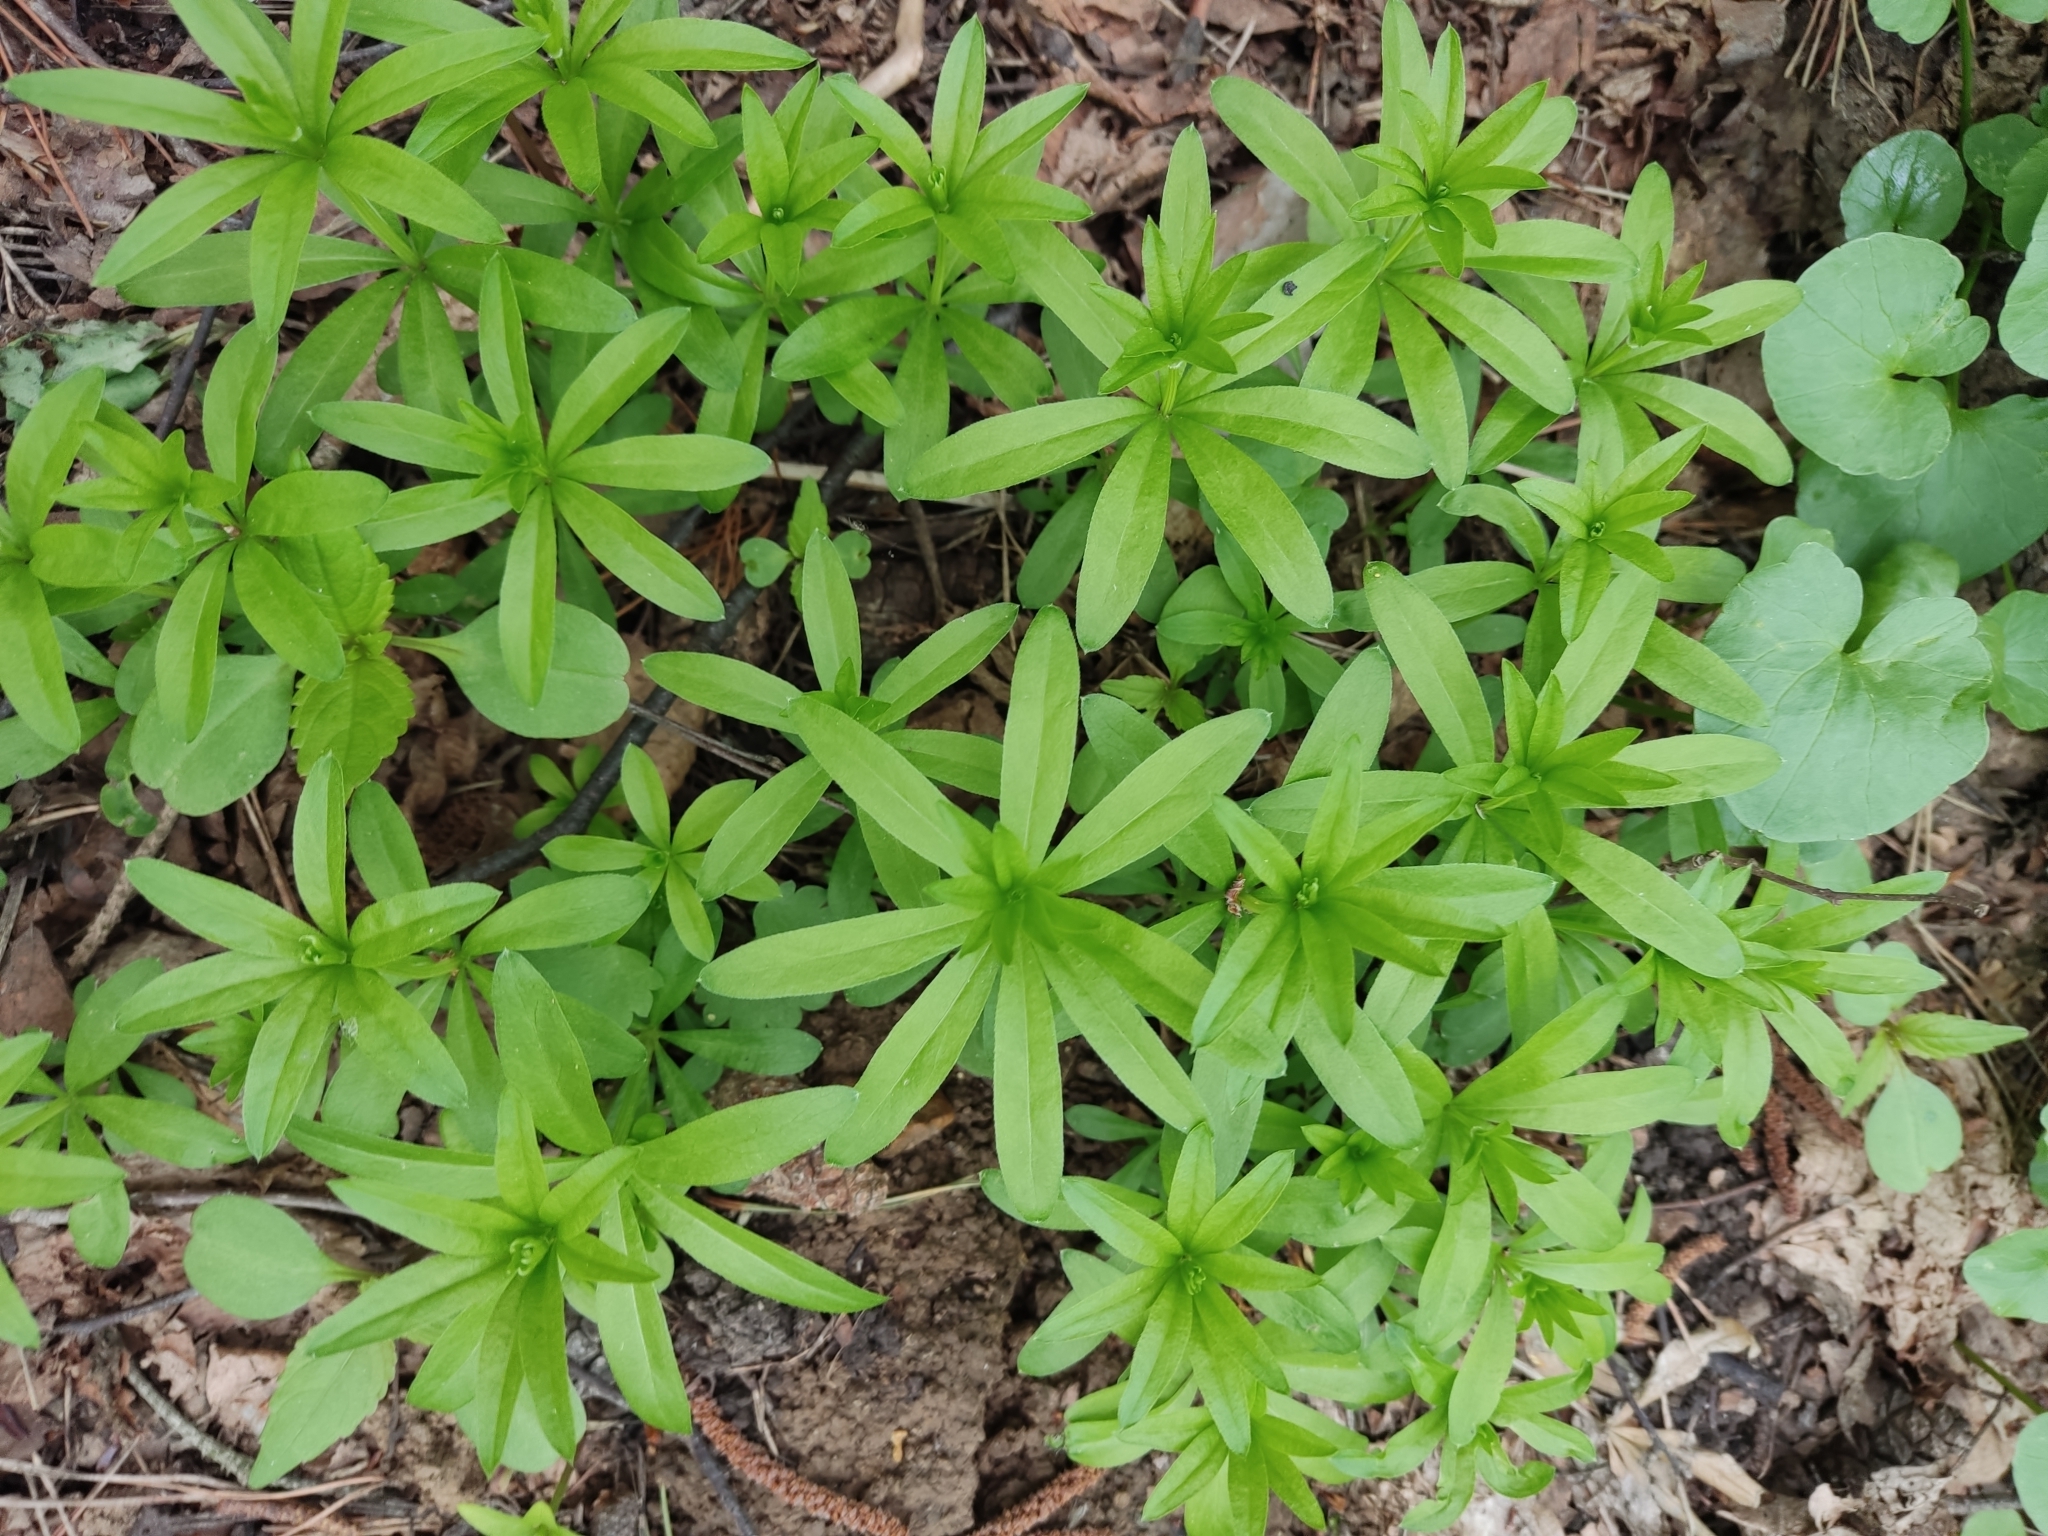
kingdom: Plantae
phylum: Tracheophyta
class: Magnoliopsida
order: Gentianales
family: Rubiaceae
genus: Galium
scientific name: Galium odoratum
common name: Sweet woodruff
